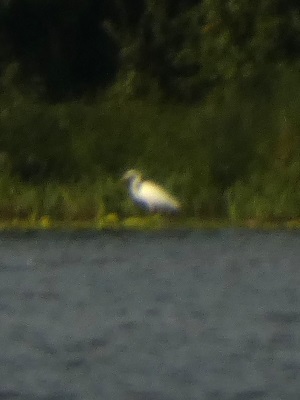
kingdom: Animalia
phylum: Chordata
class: Aves
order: Pelecaniformes
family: Ardeidae
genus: Ardea
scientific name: Ardea alba
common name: Great egret
